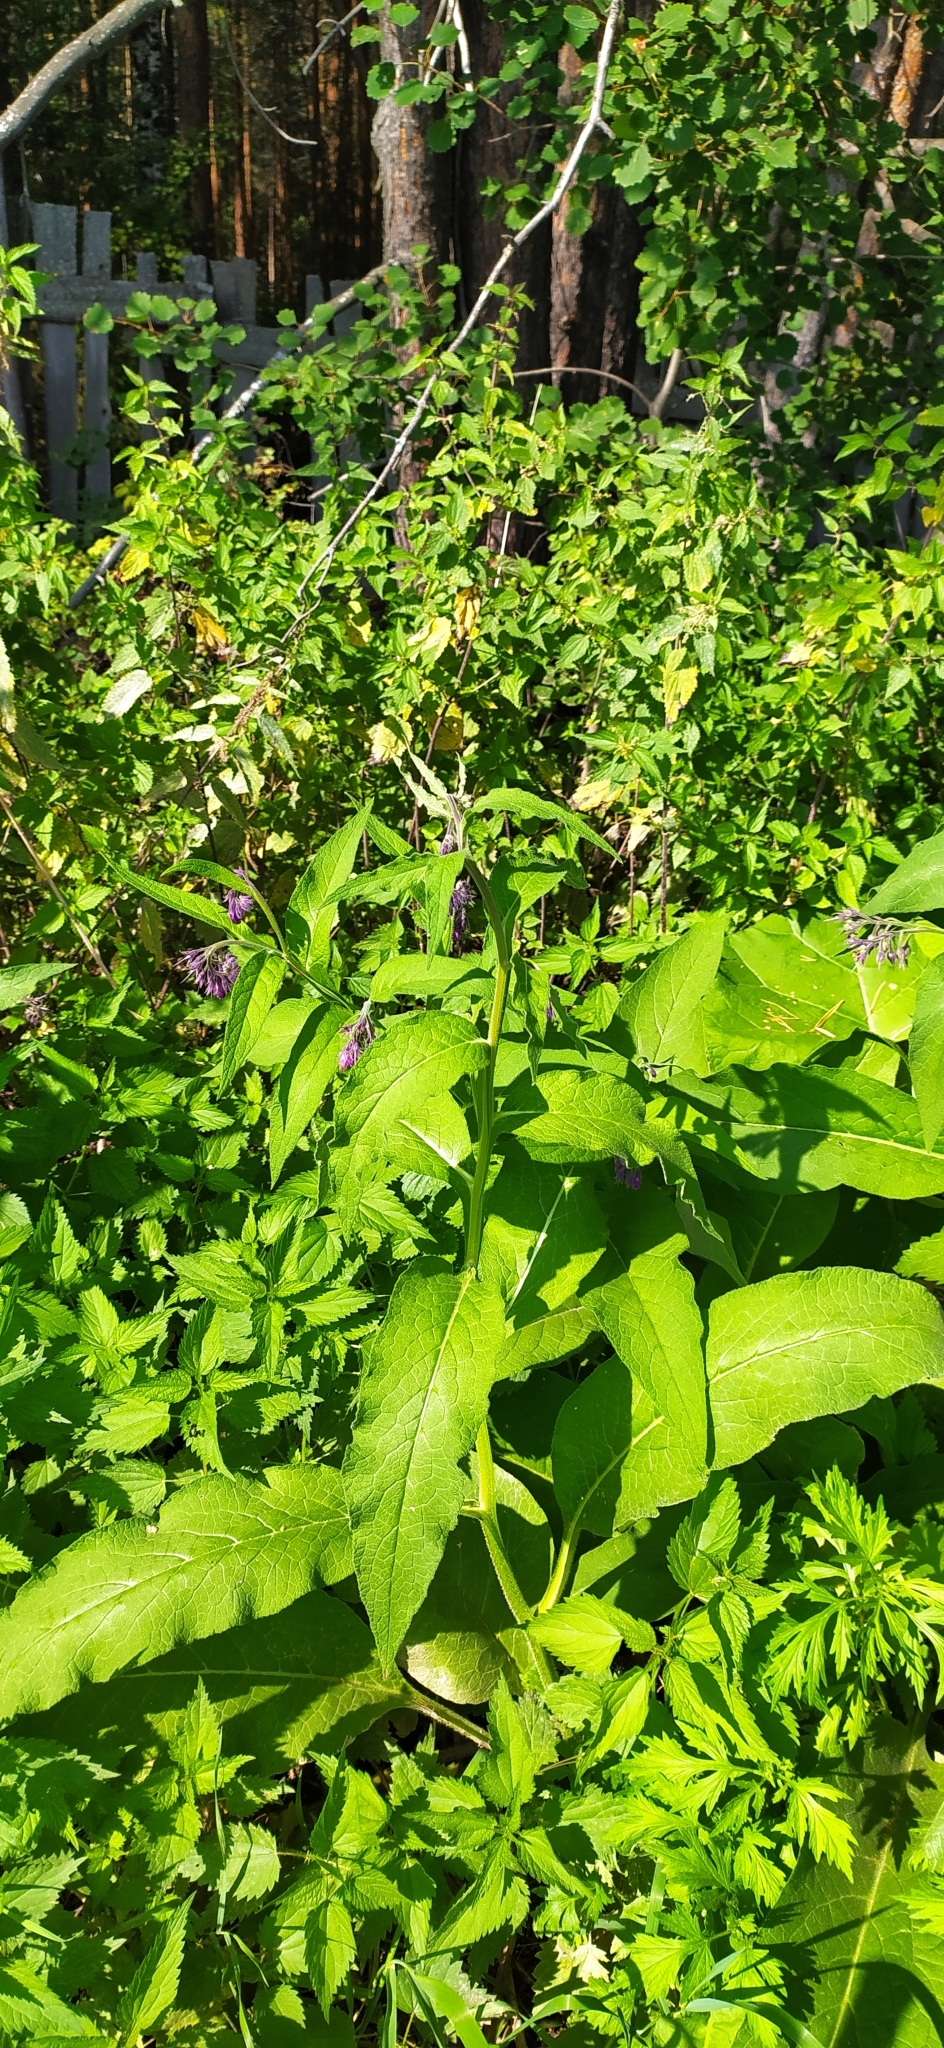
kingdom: Plantae
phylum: Tracheophyta
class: Magnoliopsida
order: Boraginales
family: Boraginaceae
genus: Symphytum
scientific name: Symphytum officinale
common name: Common comfrey
